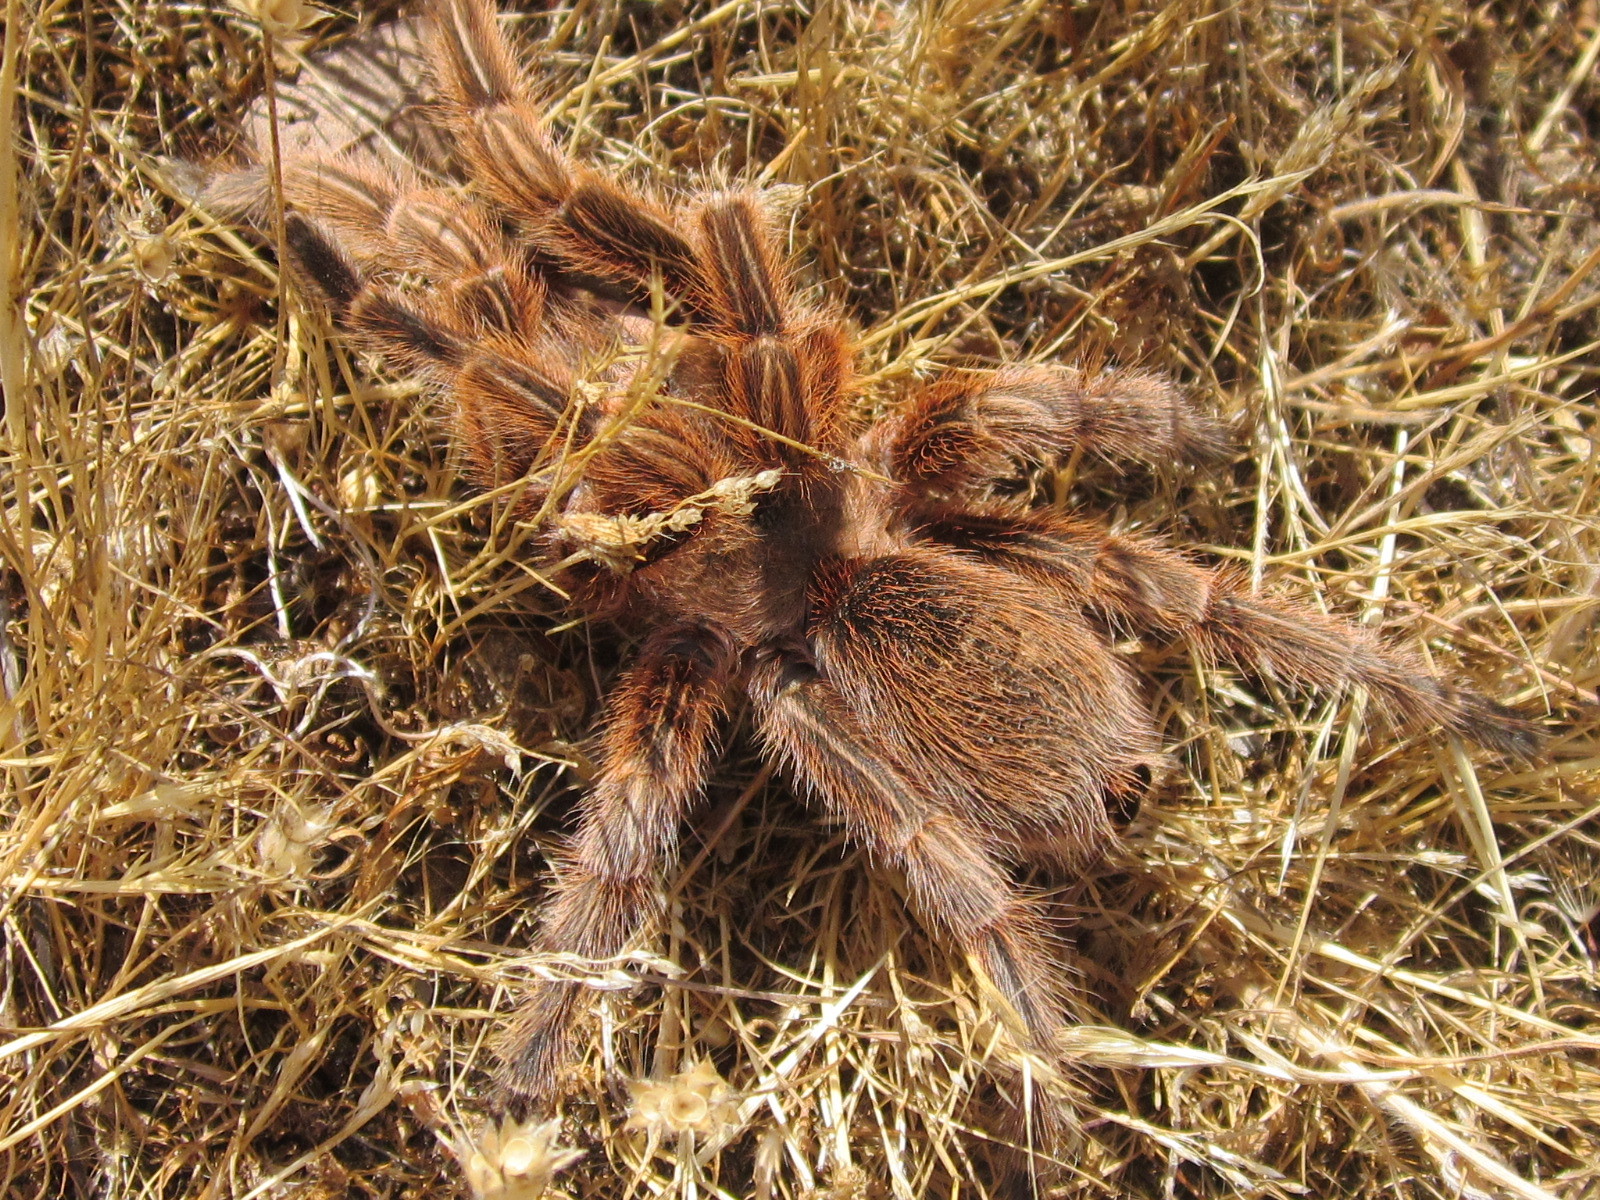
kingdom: Animalia
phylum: Arthropoda
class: Arachnida
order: Araneae
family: Theraphosidae
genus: Grammostola
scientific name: Grammostola rosea
